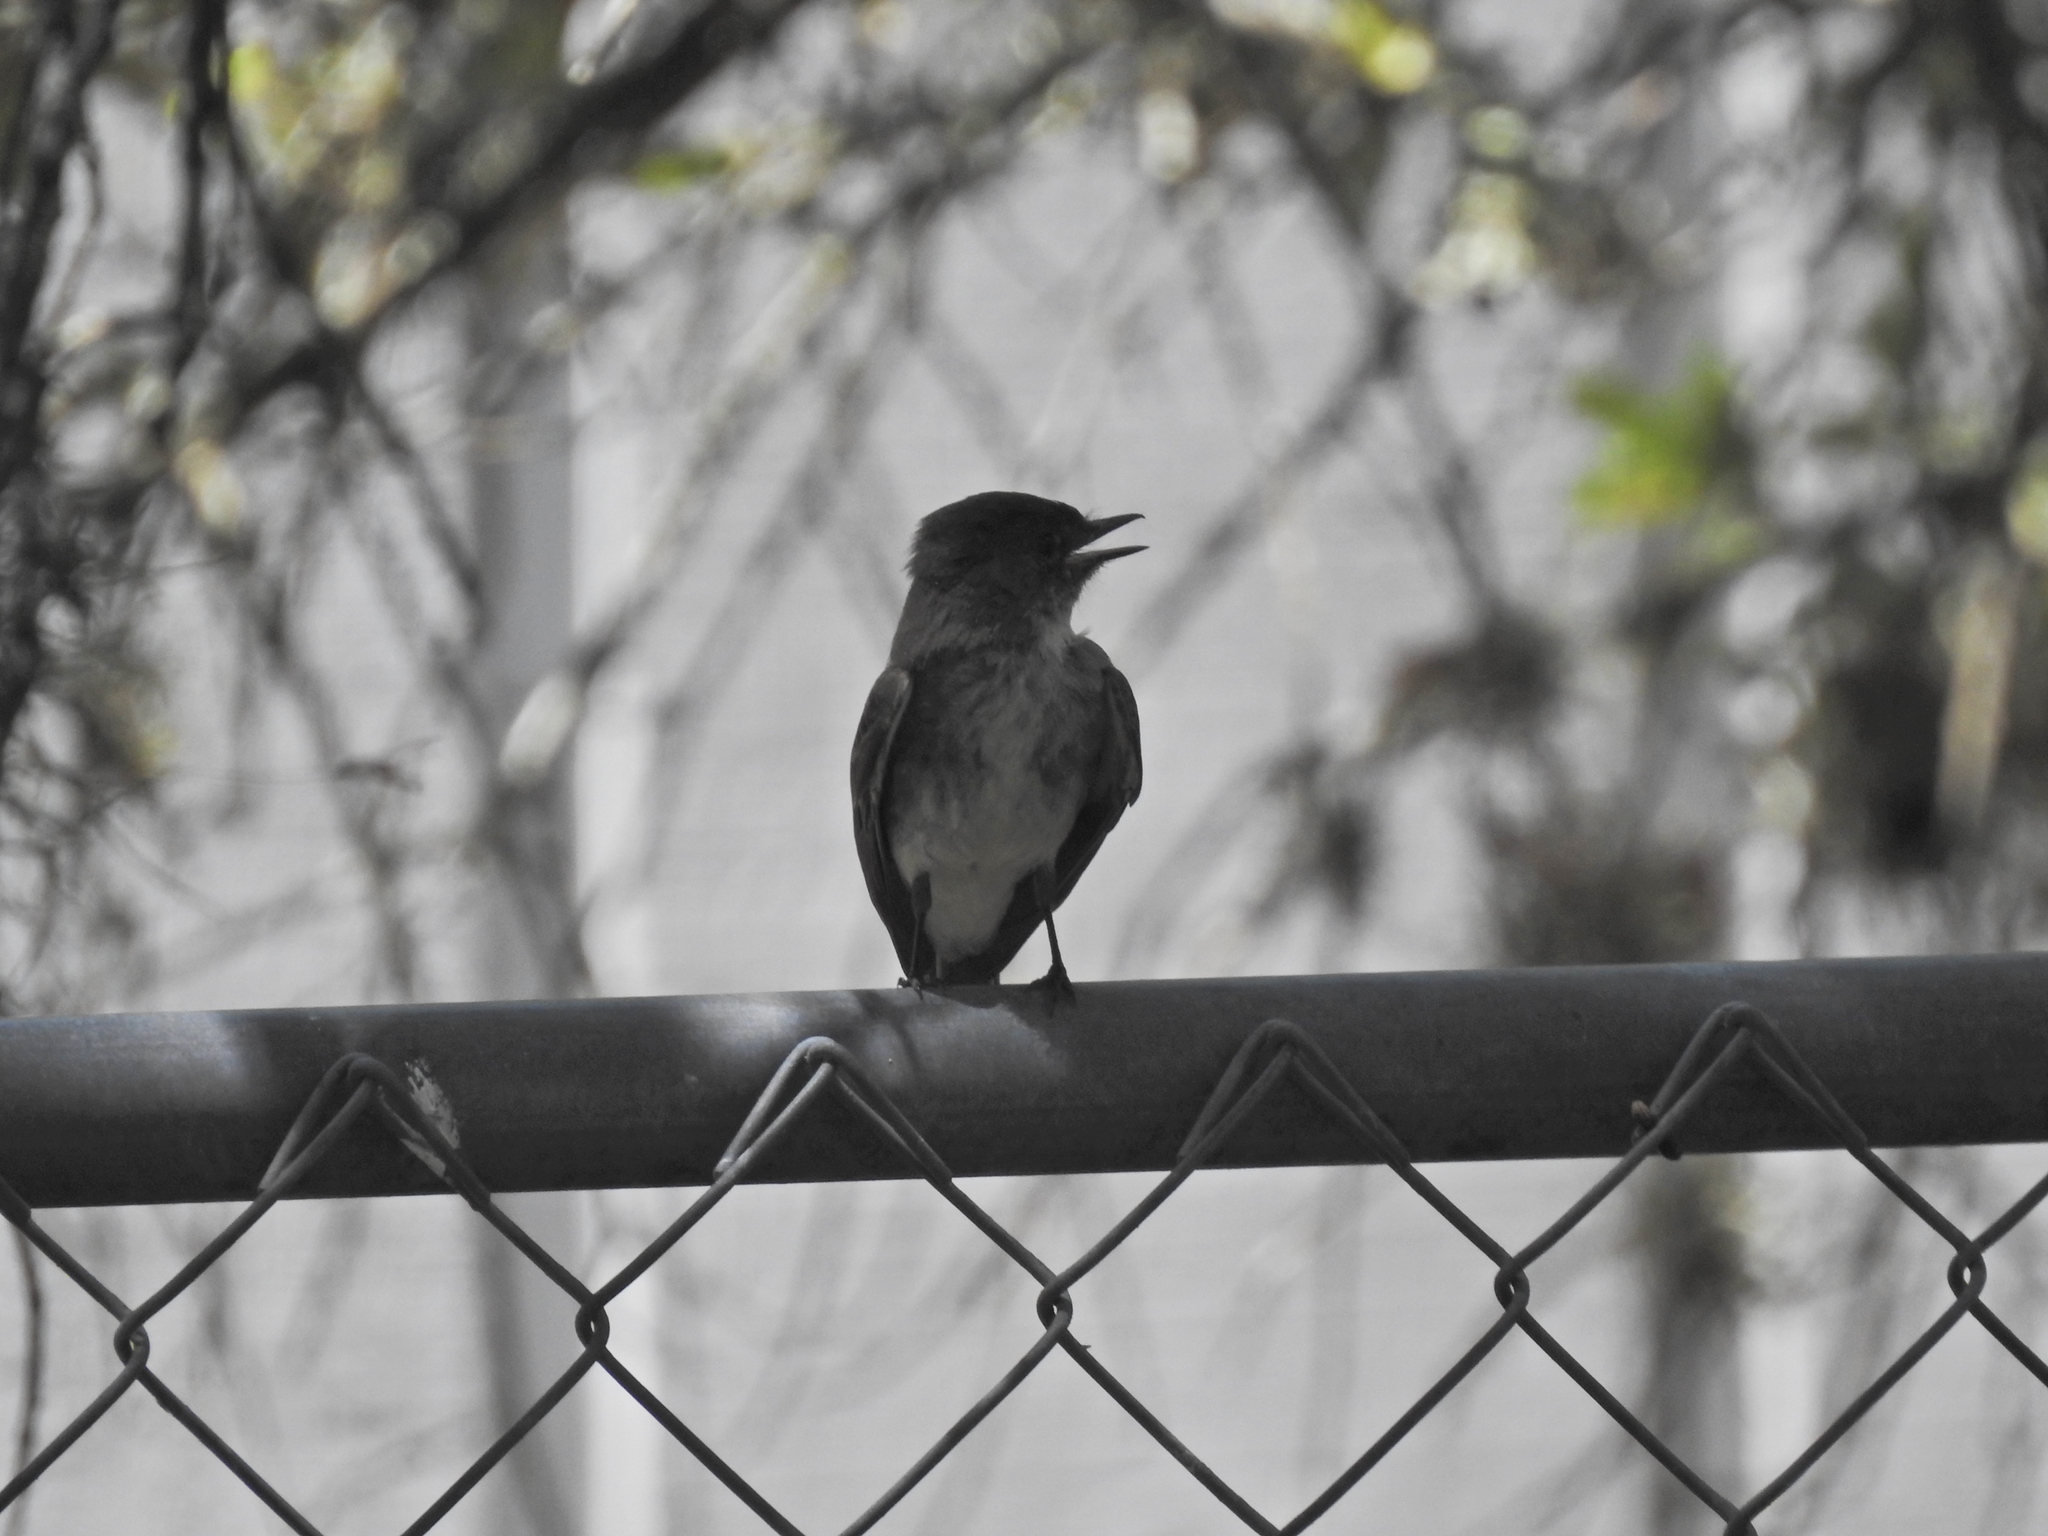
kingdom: Animalia
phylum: Chordata
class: Aves
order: Passeriformes
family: Tyrannidae
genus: Sayornis
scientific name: Sayornis phoebe
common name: Eastern phoebe
